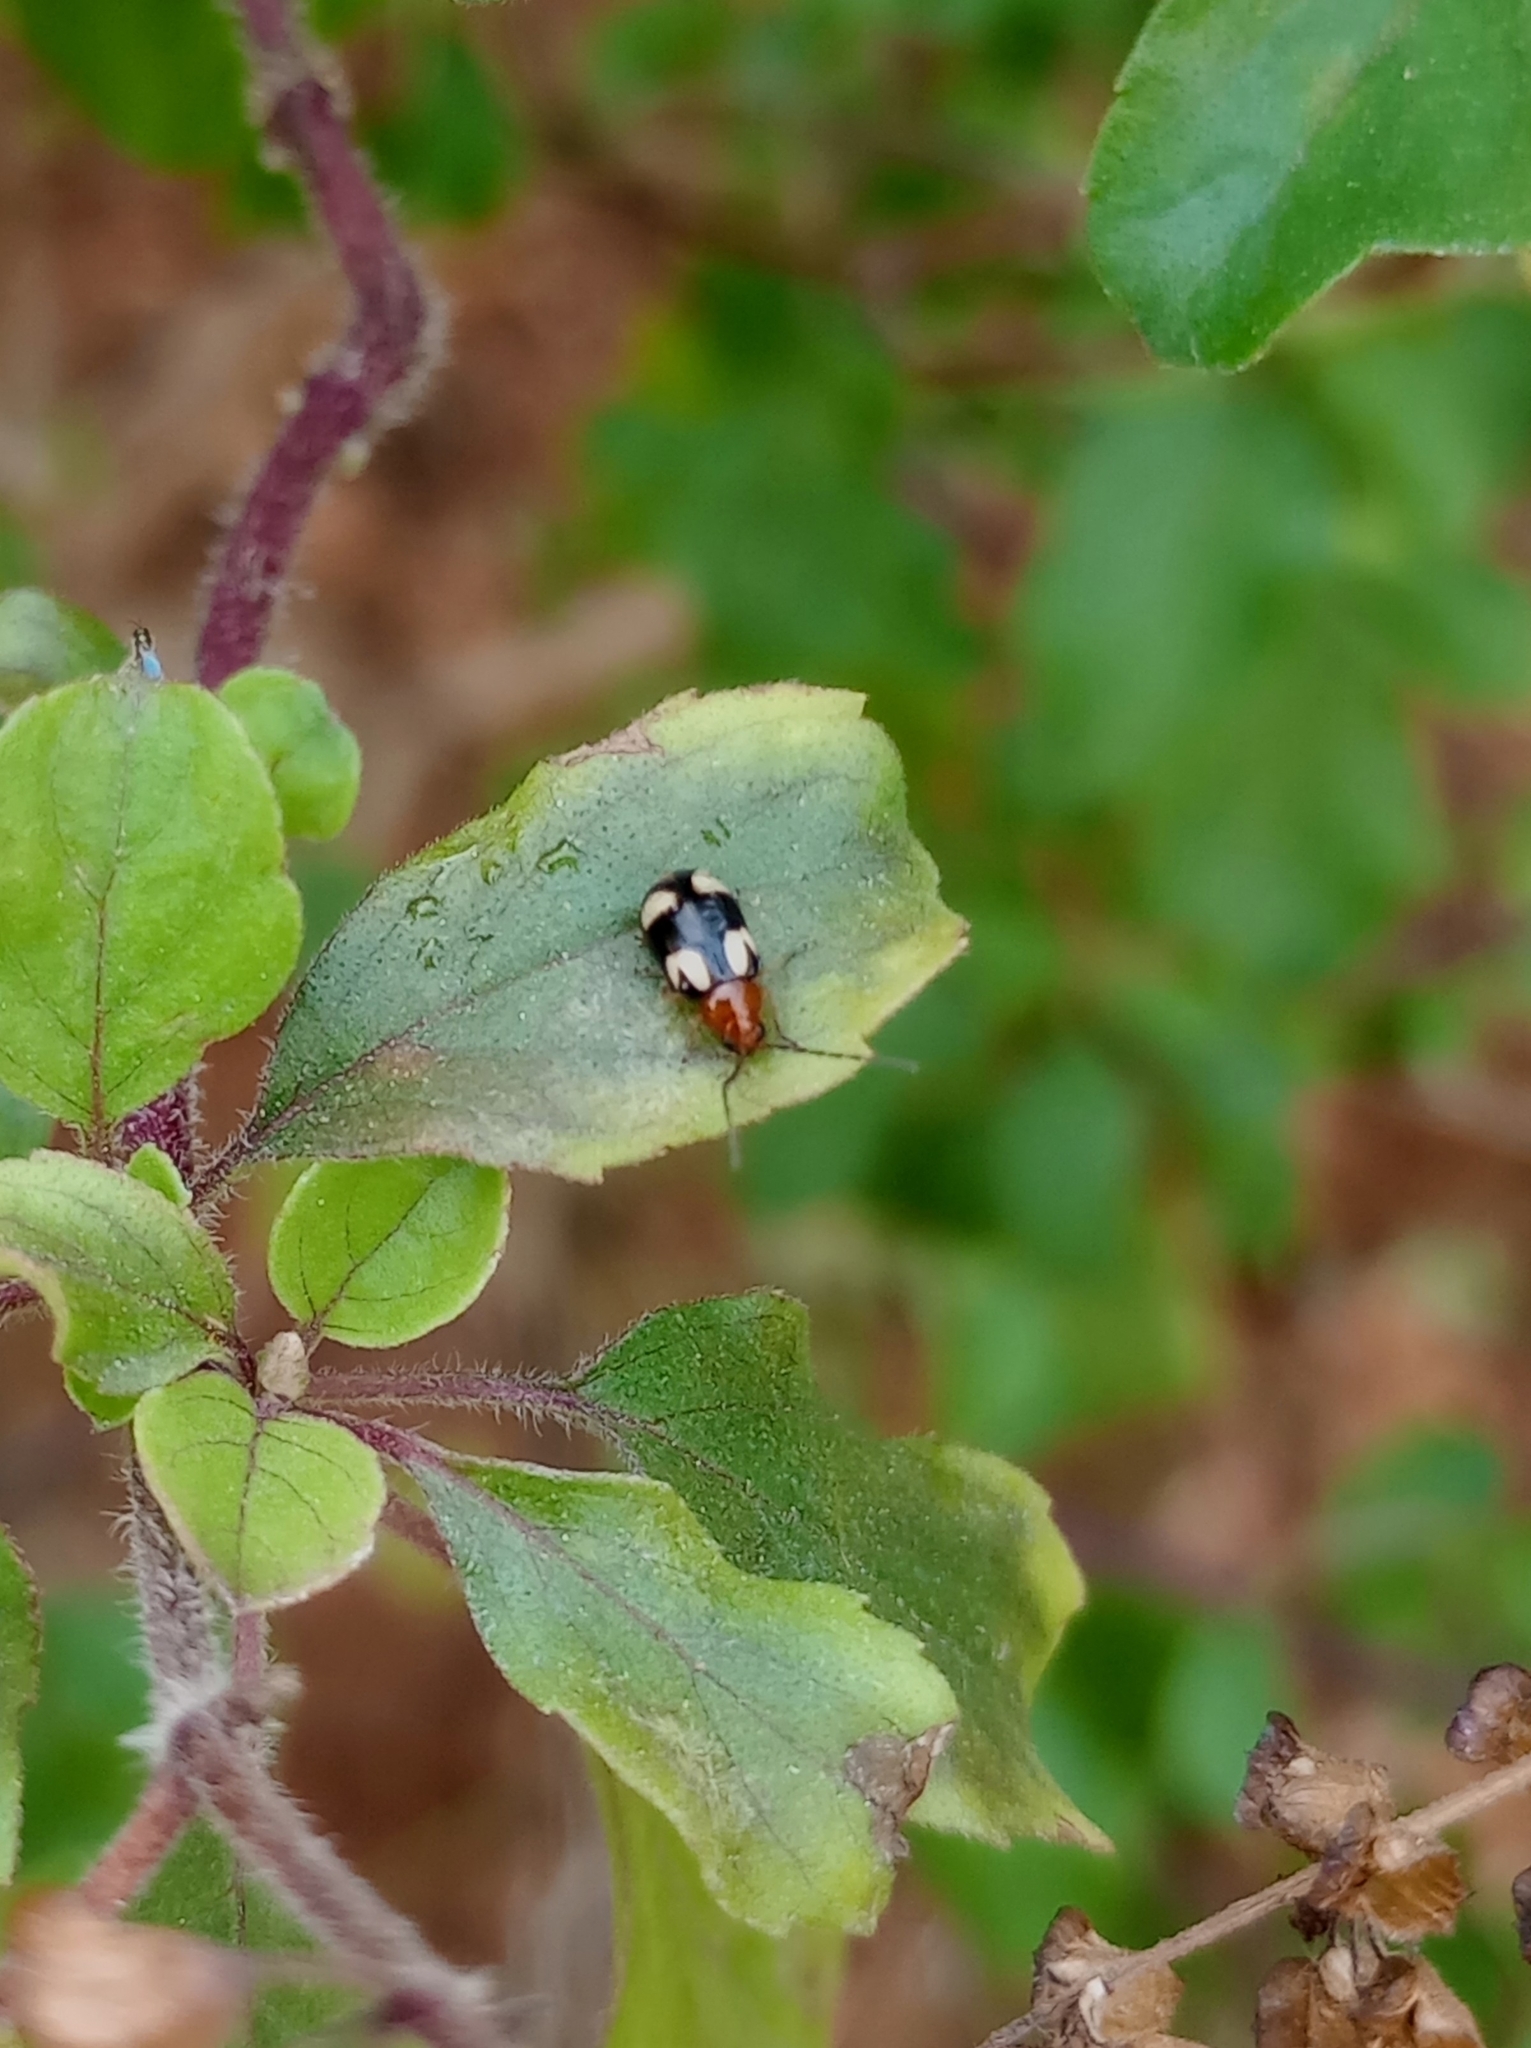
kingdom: Animalia
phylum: Arthropoda
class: Insecta
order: Coleoptera
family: Chrysomelidae
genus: Monolepta
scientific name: Monolepta signata
